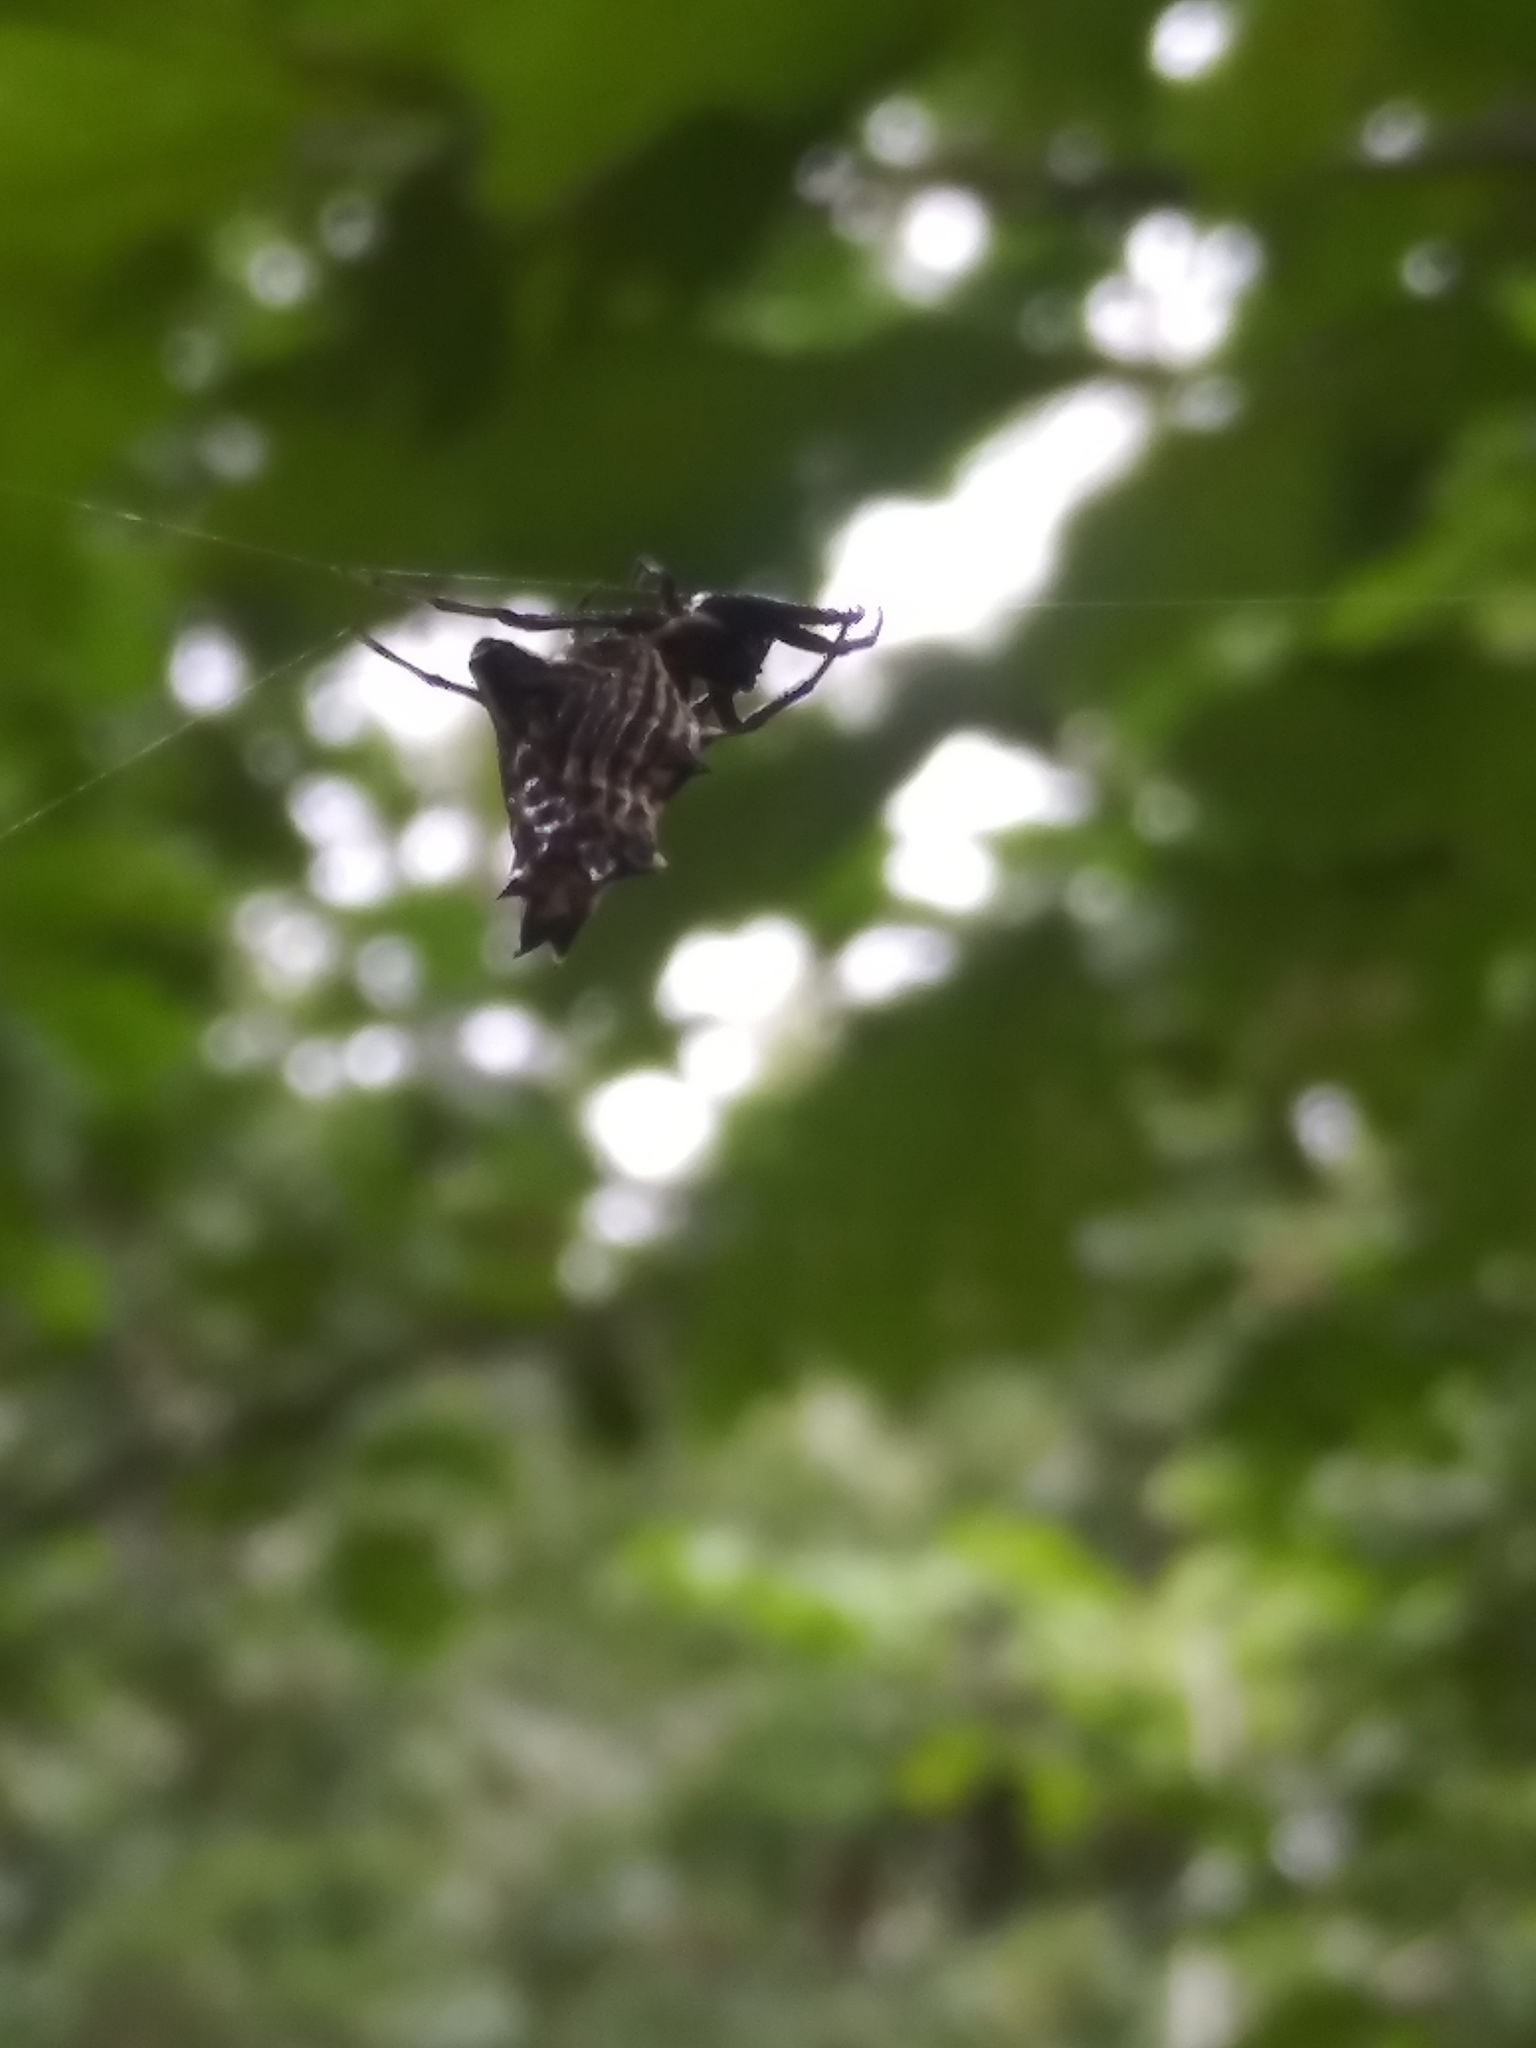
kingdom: Animalia
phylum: Arthropoda
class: Arachnida
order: Araneae
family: Araneidae
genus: Micrathena
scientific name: Micrathena gracilis
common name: Orb weavers
